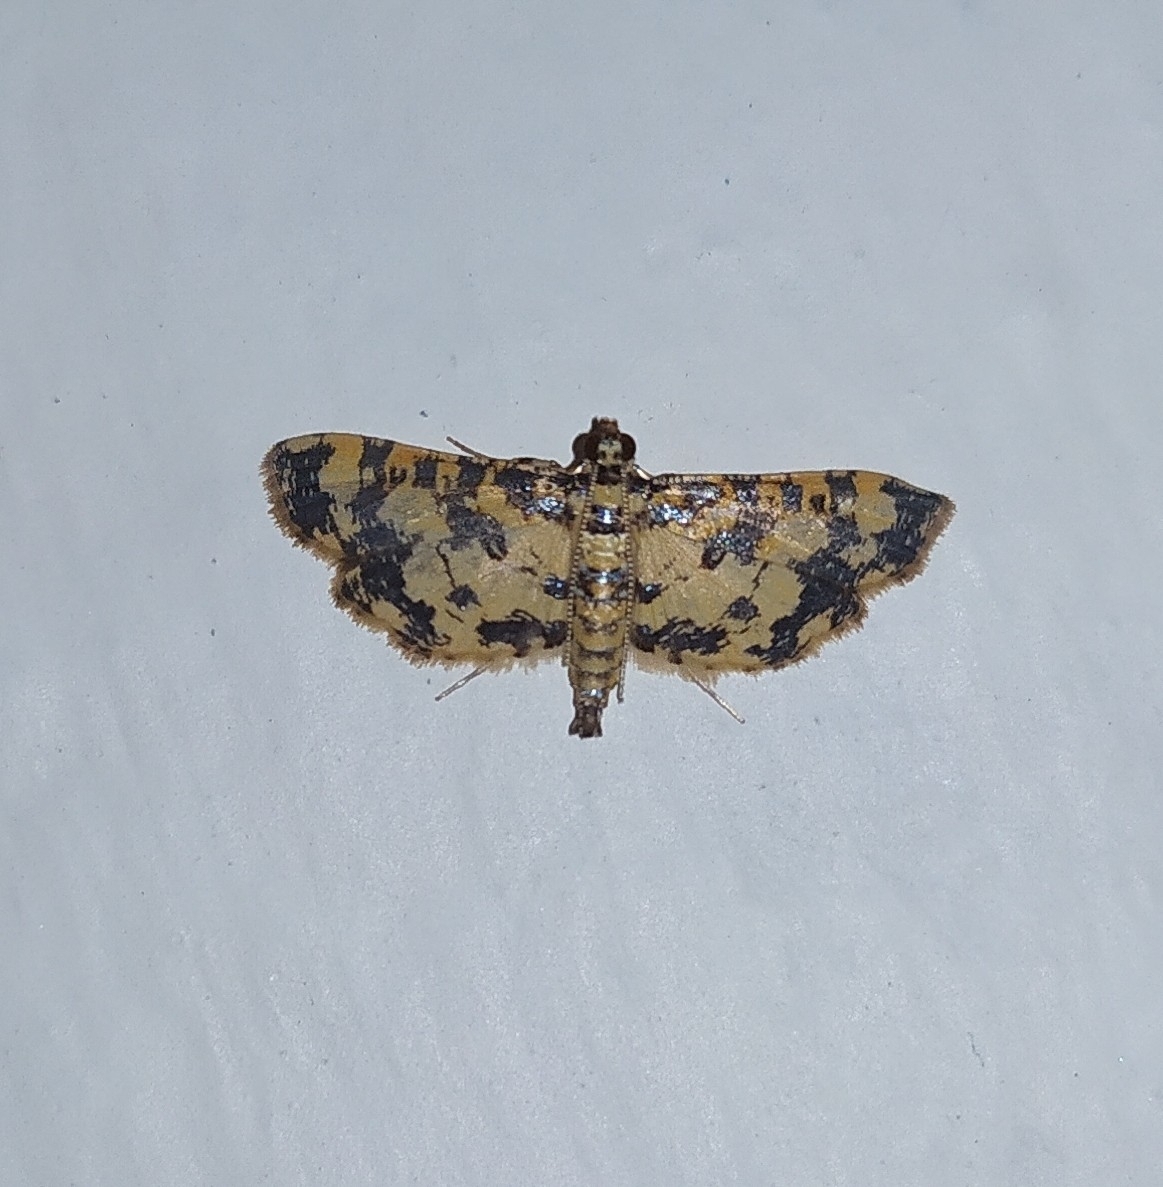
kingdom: Animalia
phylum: Arthropoda
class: Insecta
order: Lepidoptera
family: Crambidae
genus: Eurrhyparodes
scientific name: Eurrhyparodes tricoloralis
